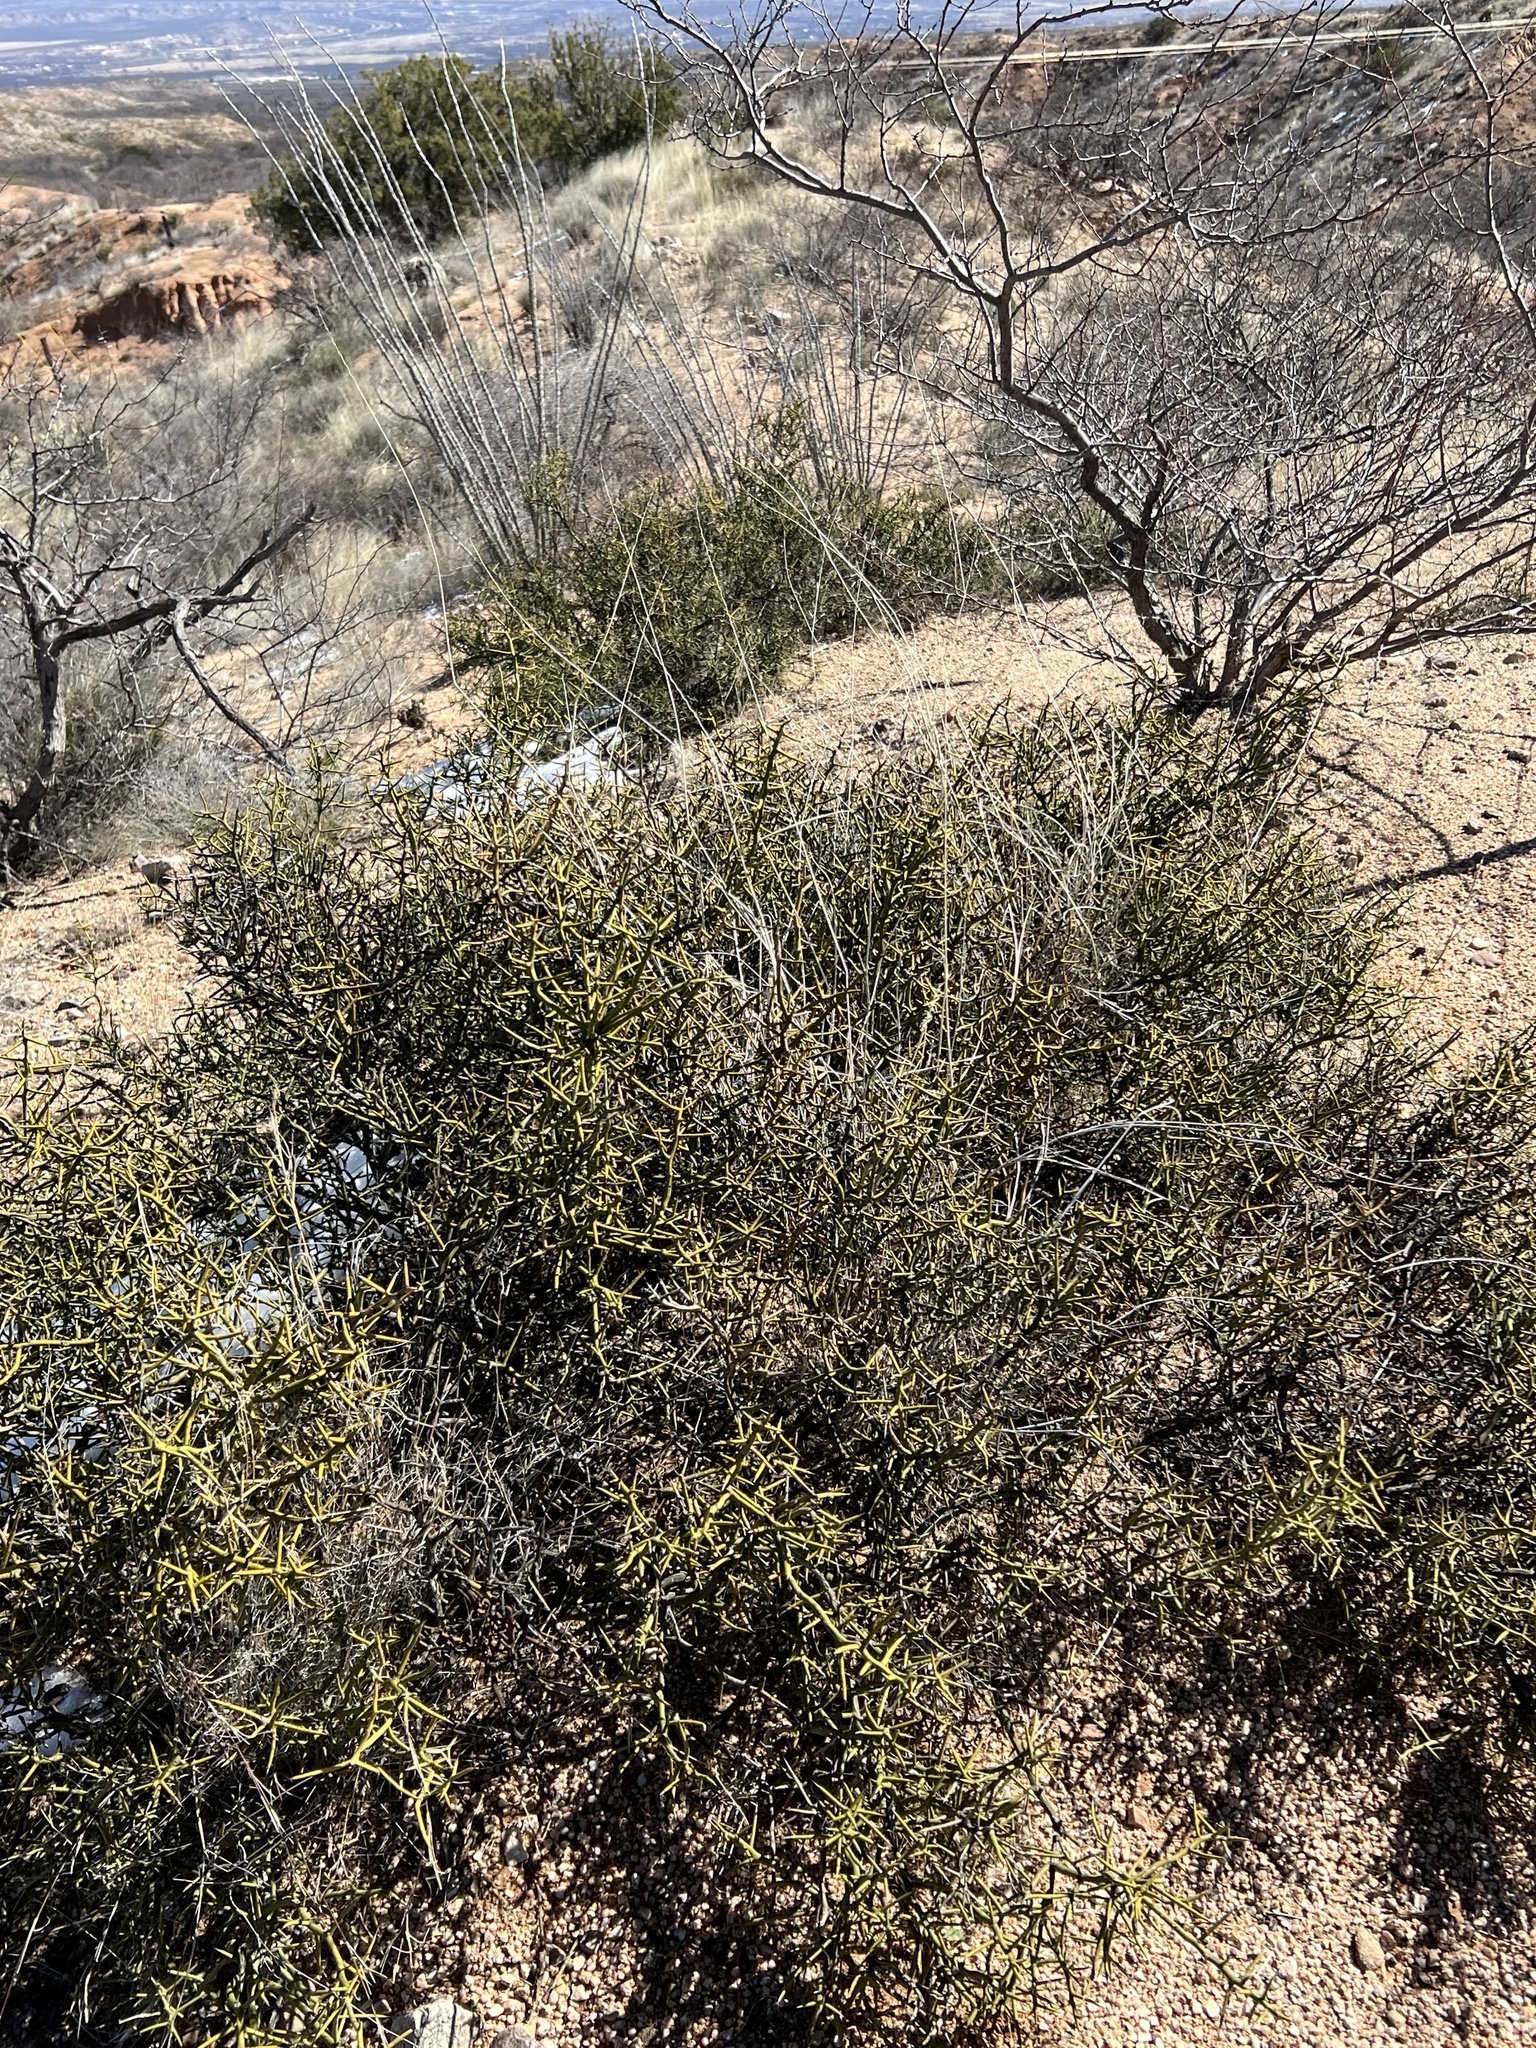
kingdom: Plantae
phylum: Tracheophyta
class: Magnoliopsida
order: Brassicales
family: Koeberliniaceae
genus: Koeberlinia
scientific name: Koeberlinia spinosa
